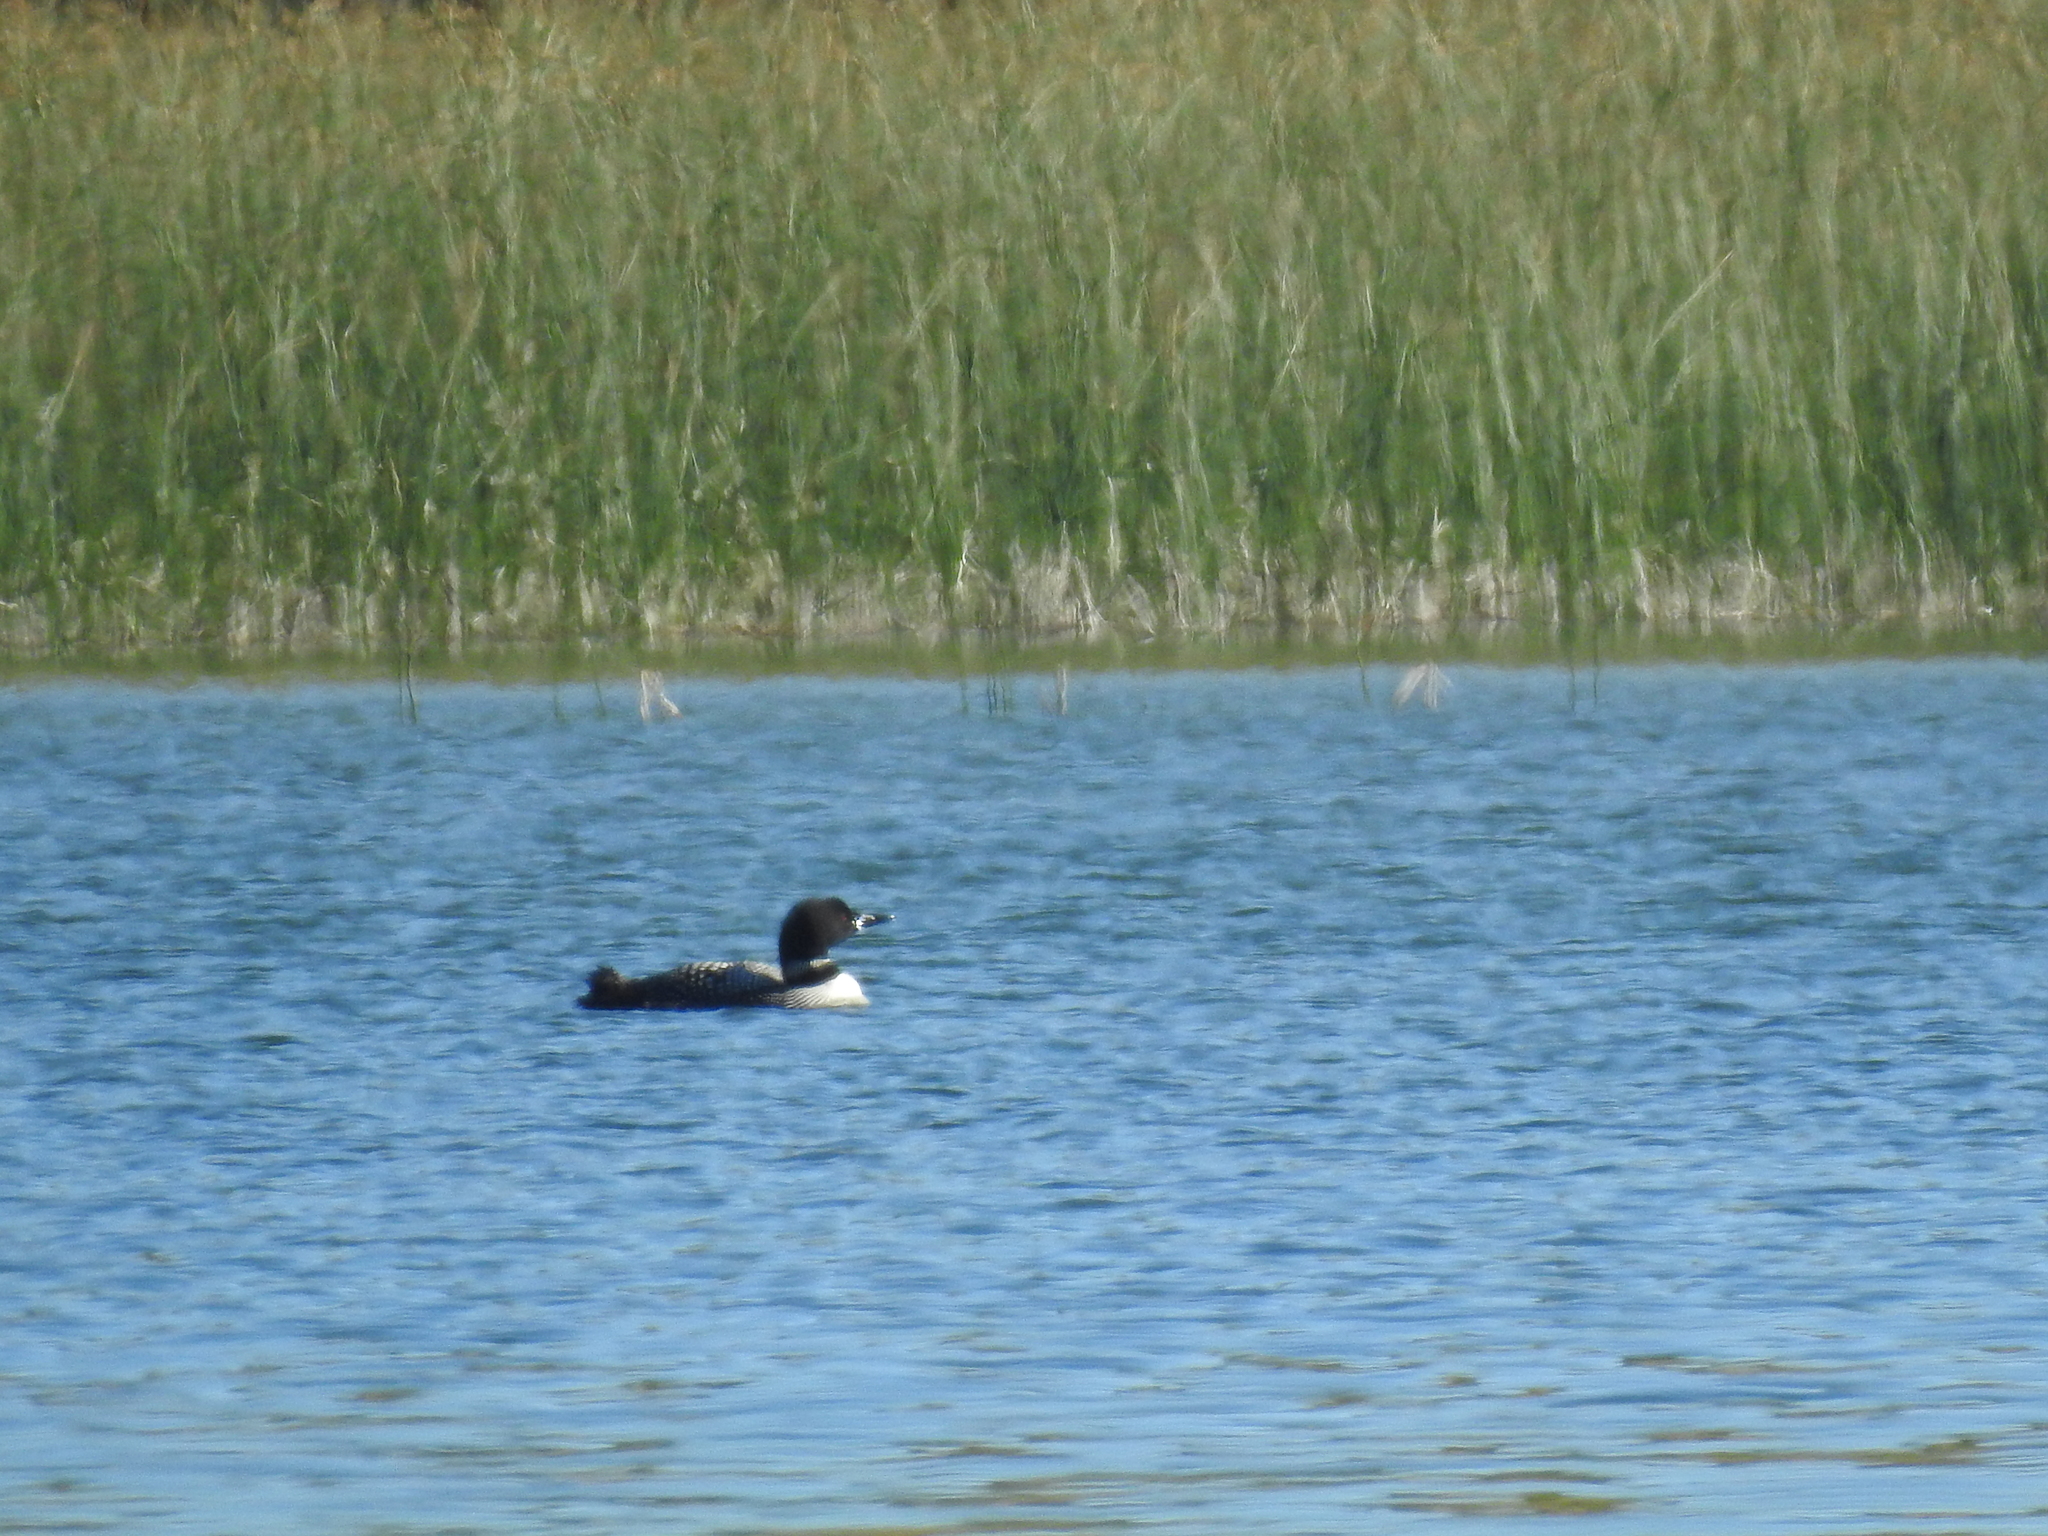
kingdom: Animalia
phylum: Chordata
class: Aves
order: Gaviiformes
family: Gaviidae
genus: Gavia
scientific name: Gavia immer
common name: Common loon
